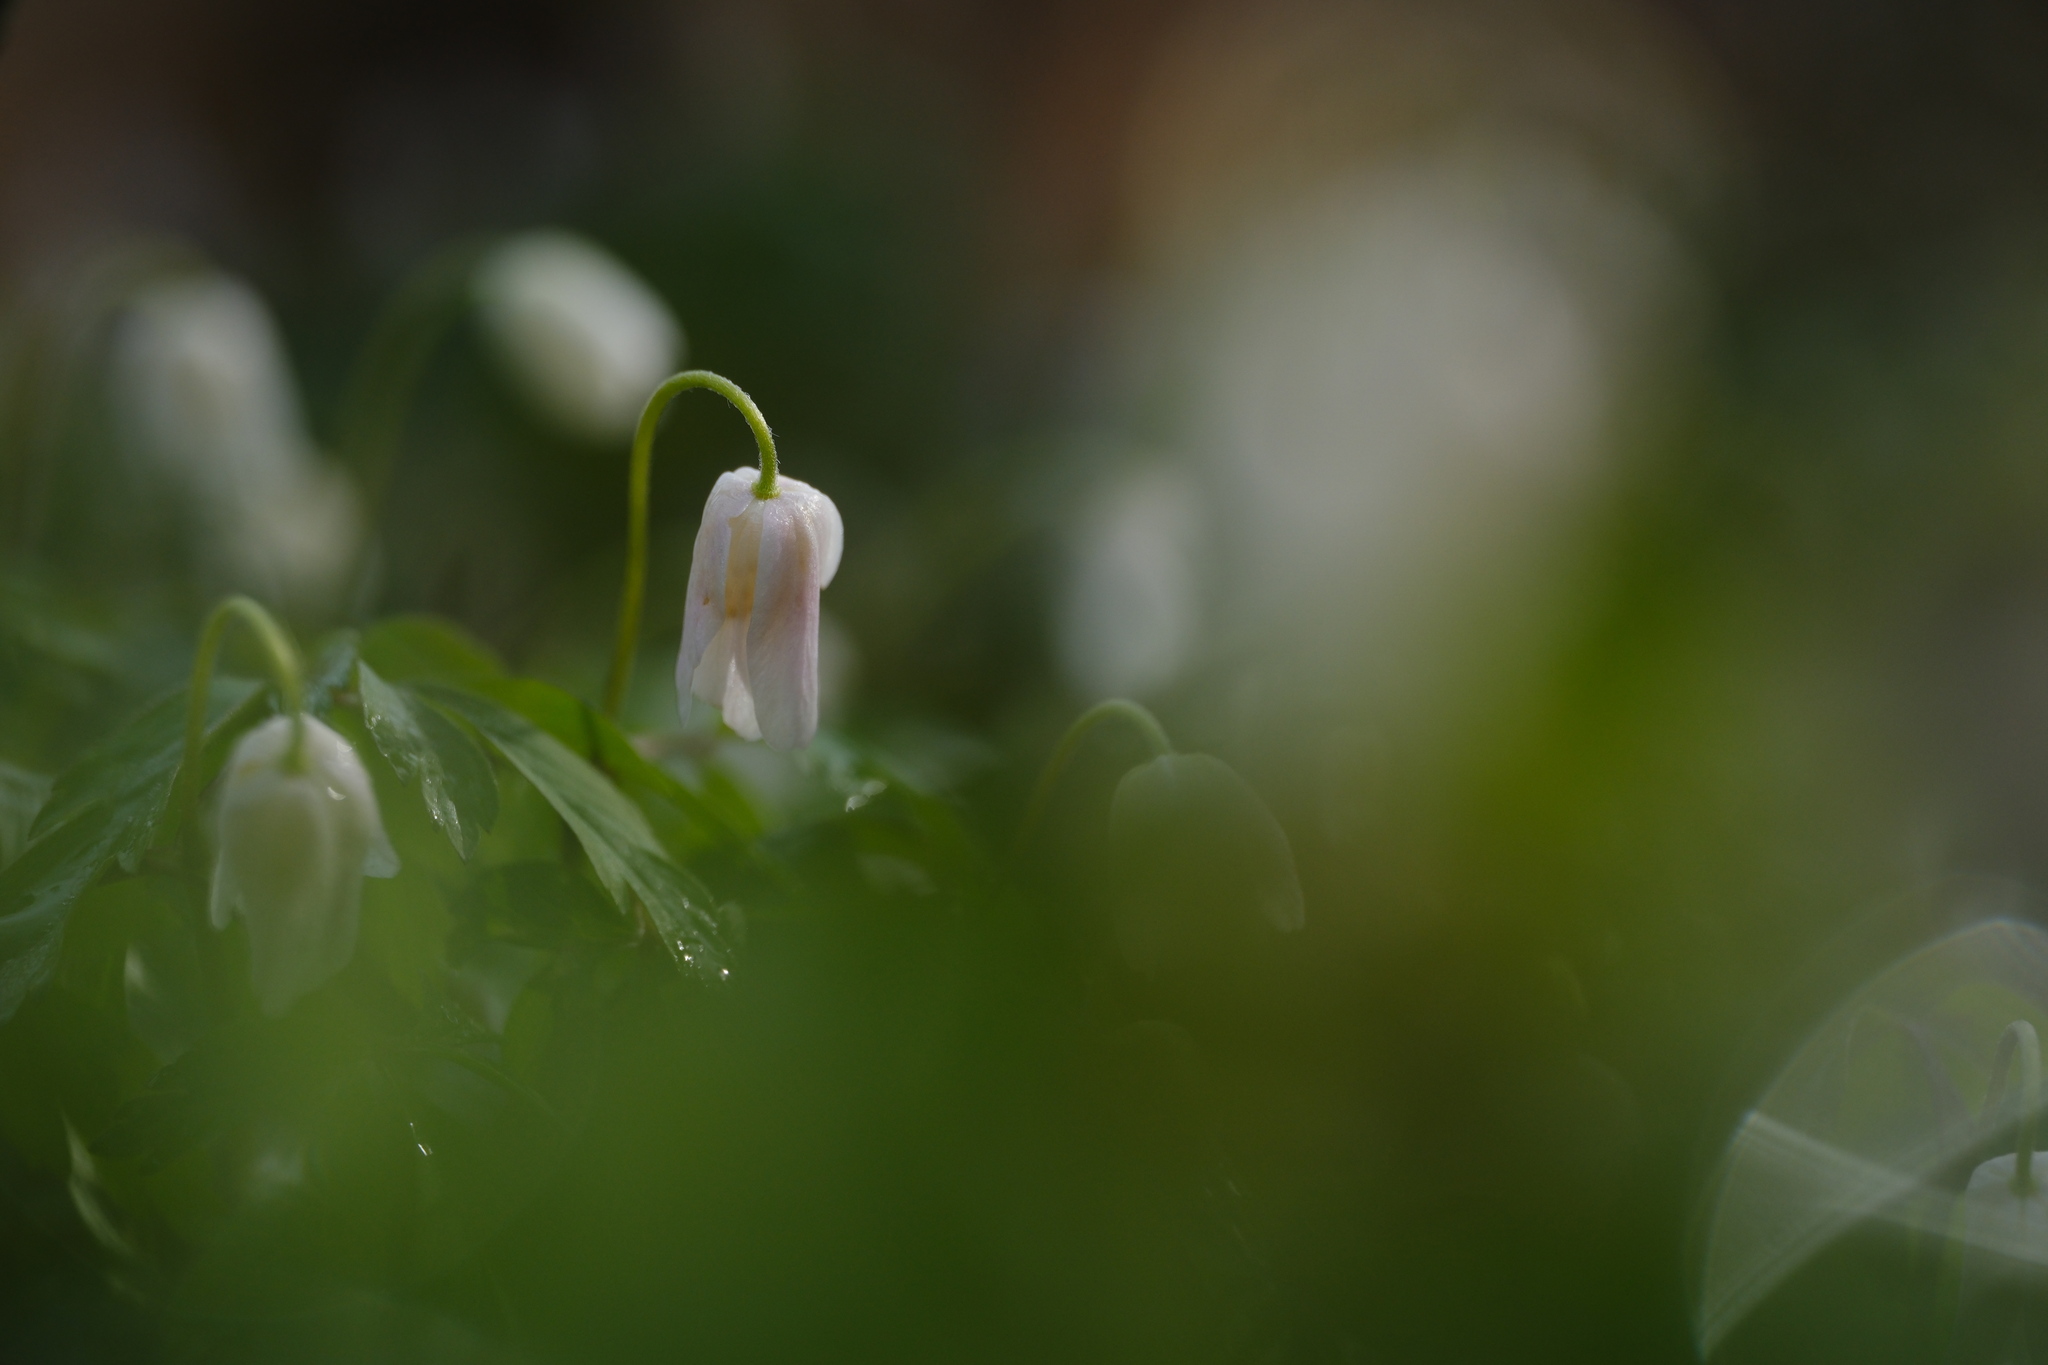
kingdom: Plantae
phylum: Tracheophyta
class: Magnoliopsida
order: Ranunculales
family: Ranunculaceae
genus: Anemone
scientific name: Anemone nemorosa
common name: Wood anemone
